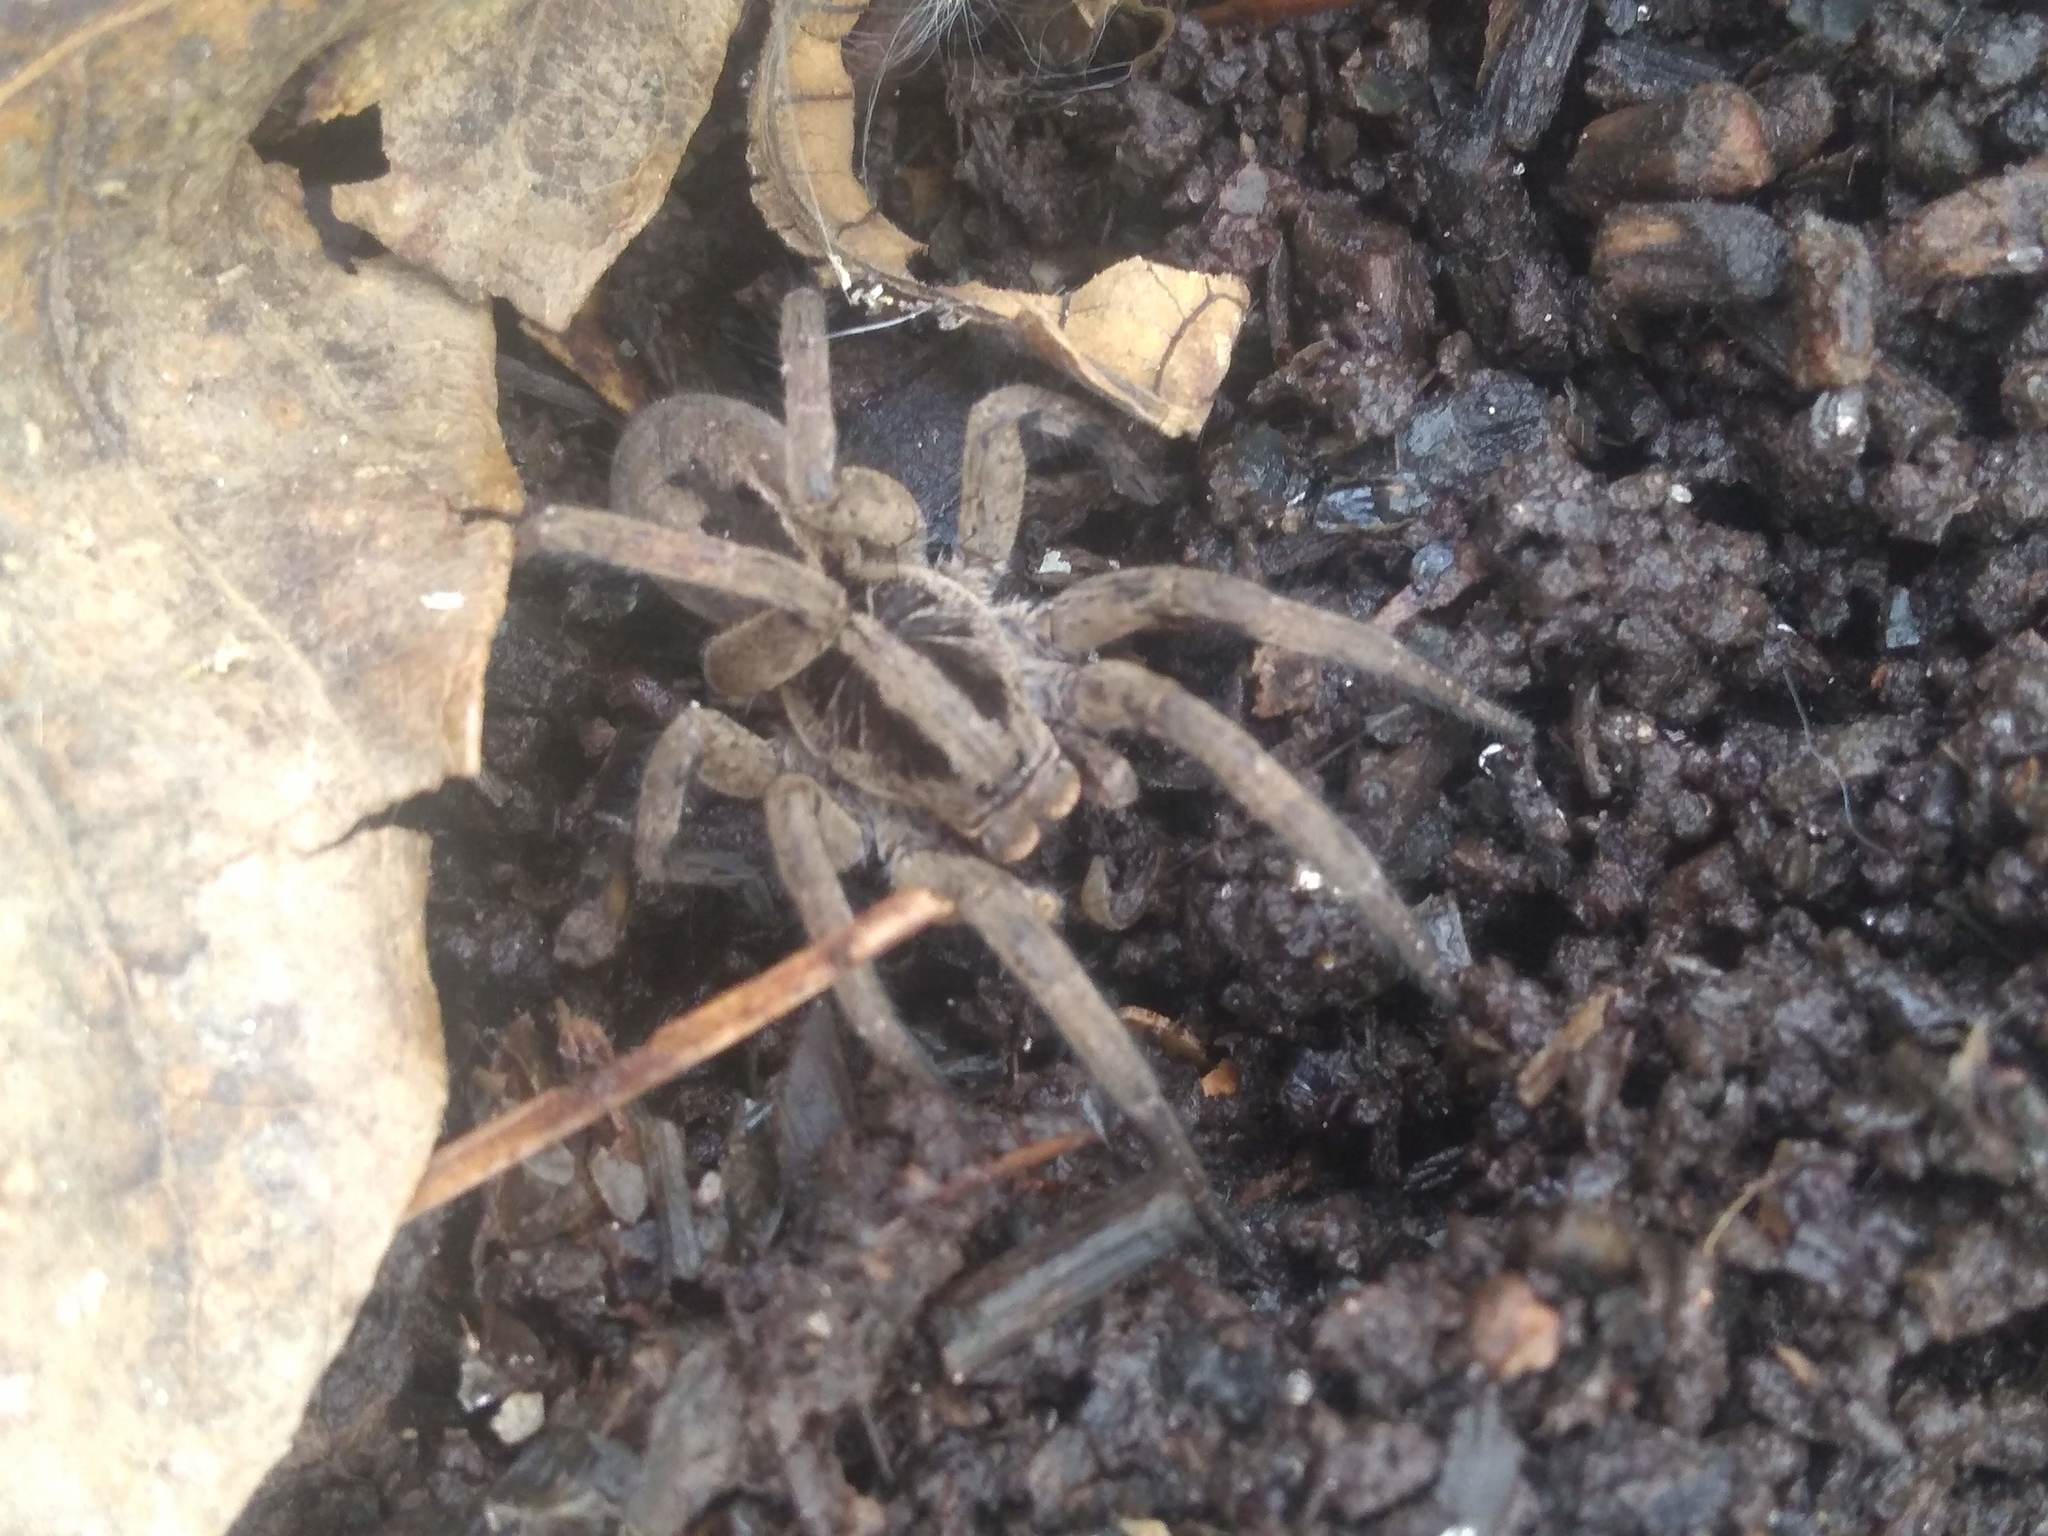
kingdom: Animalia
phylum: Arthropoda
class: Arachnida
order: Araneae
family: Lycosidae
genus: Lycosa
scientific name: Lycosa erythrognatha
